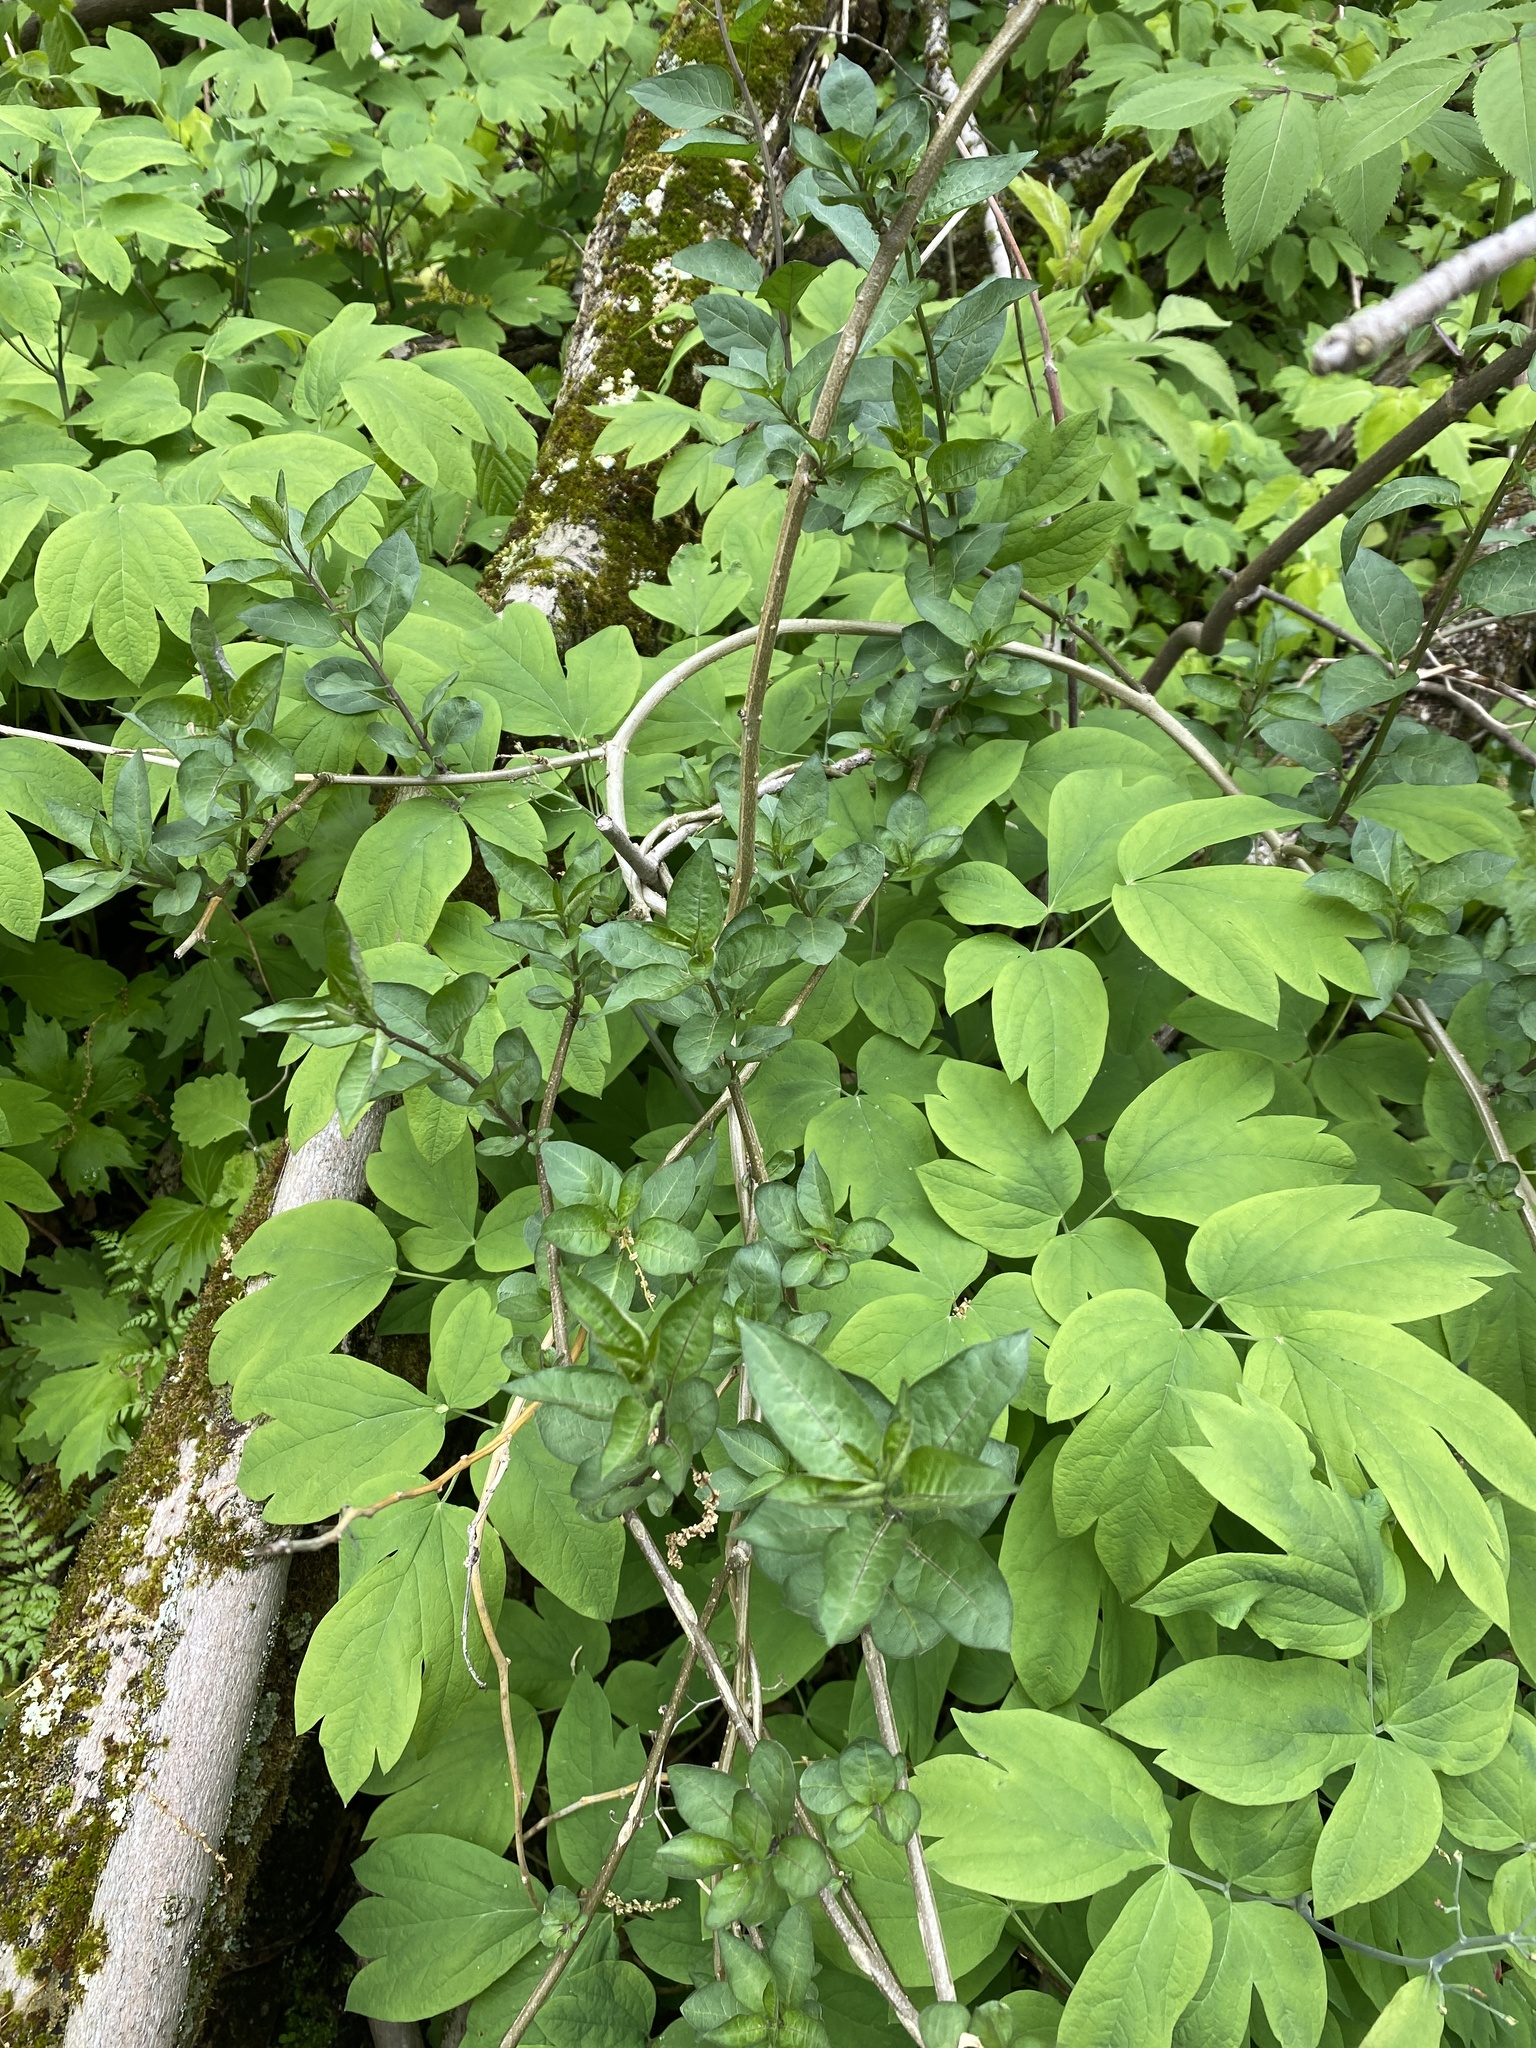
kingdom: Plantae
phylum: Tracheophyta
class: Magnoliopsida
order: Solanales
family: Solanaceae
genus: Solanum
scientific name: Solanum dulcamara
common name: Climbing nightshade
